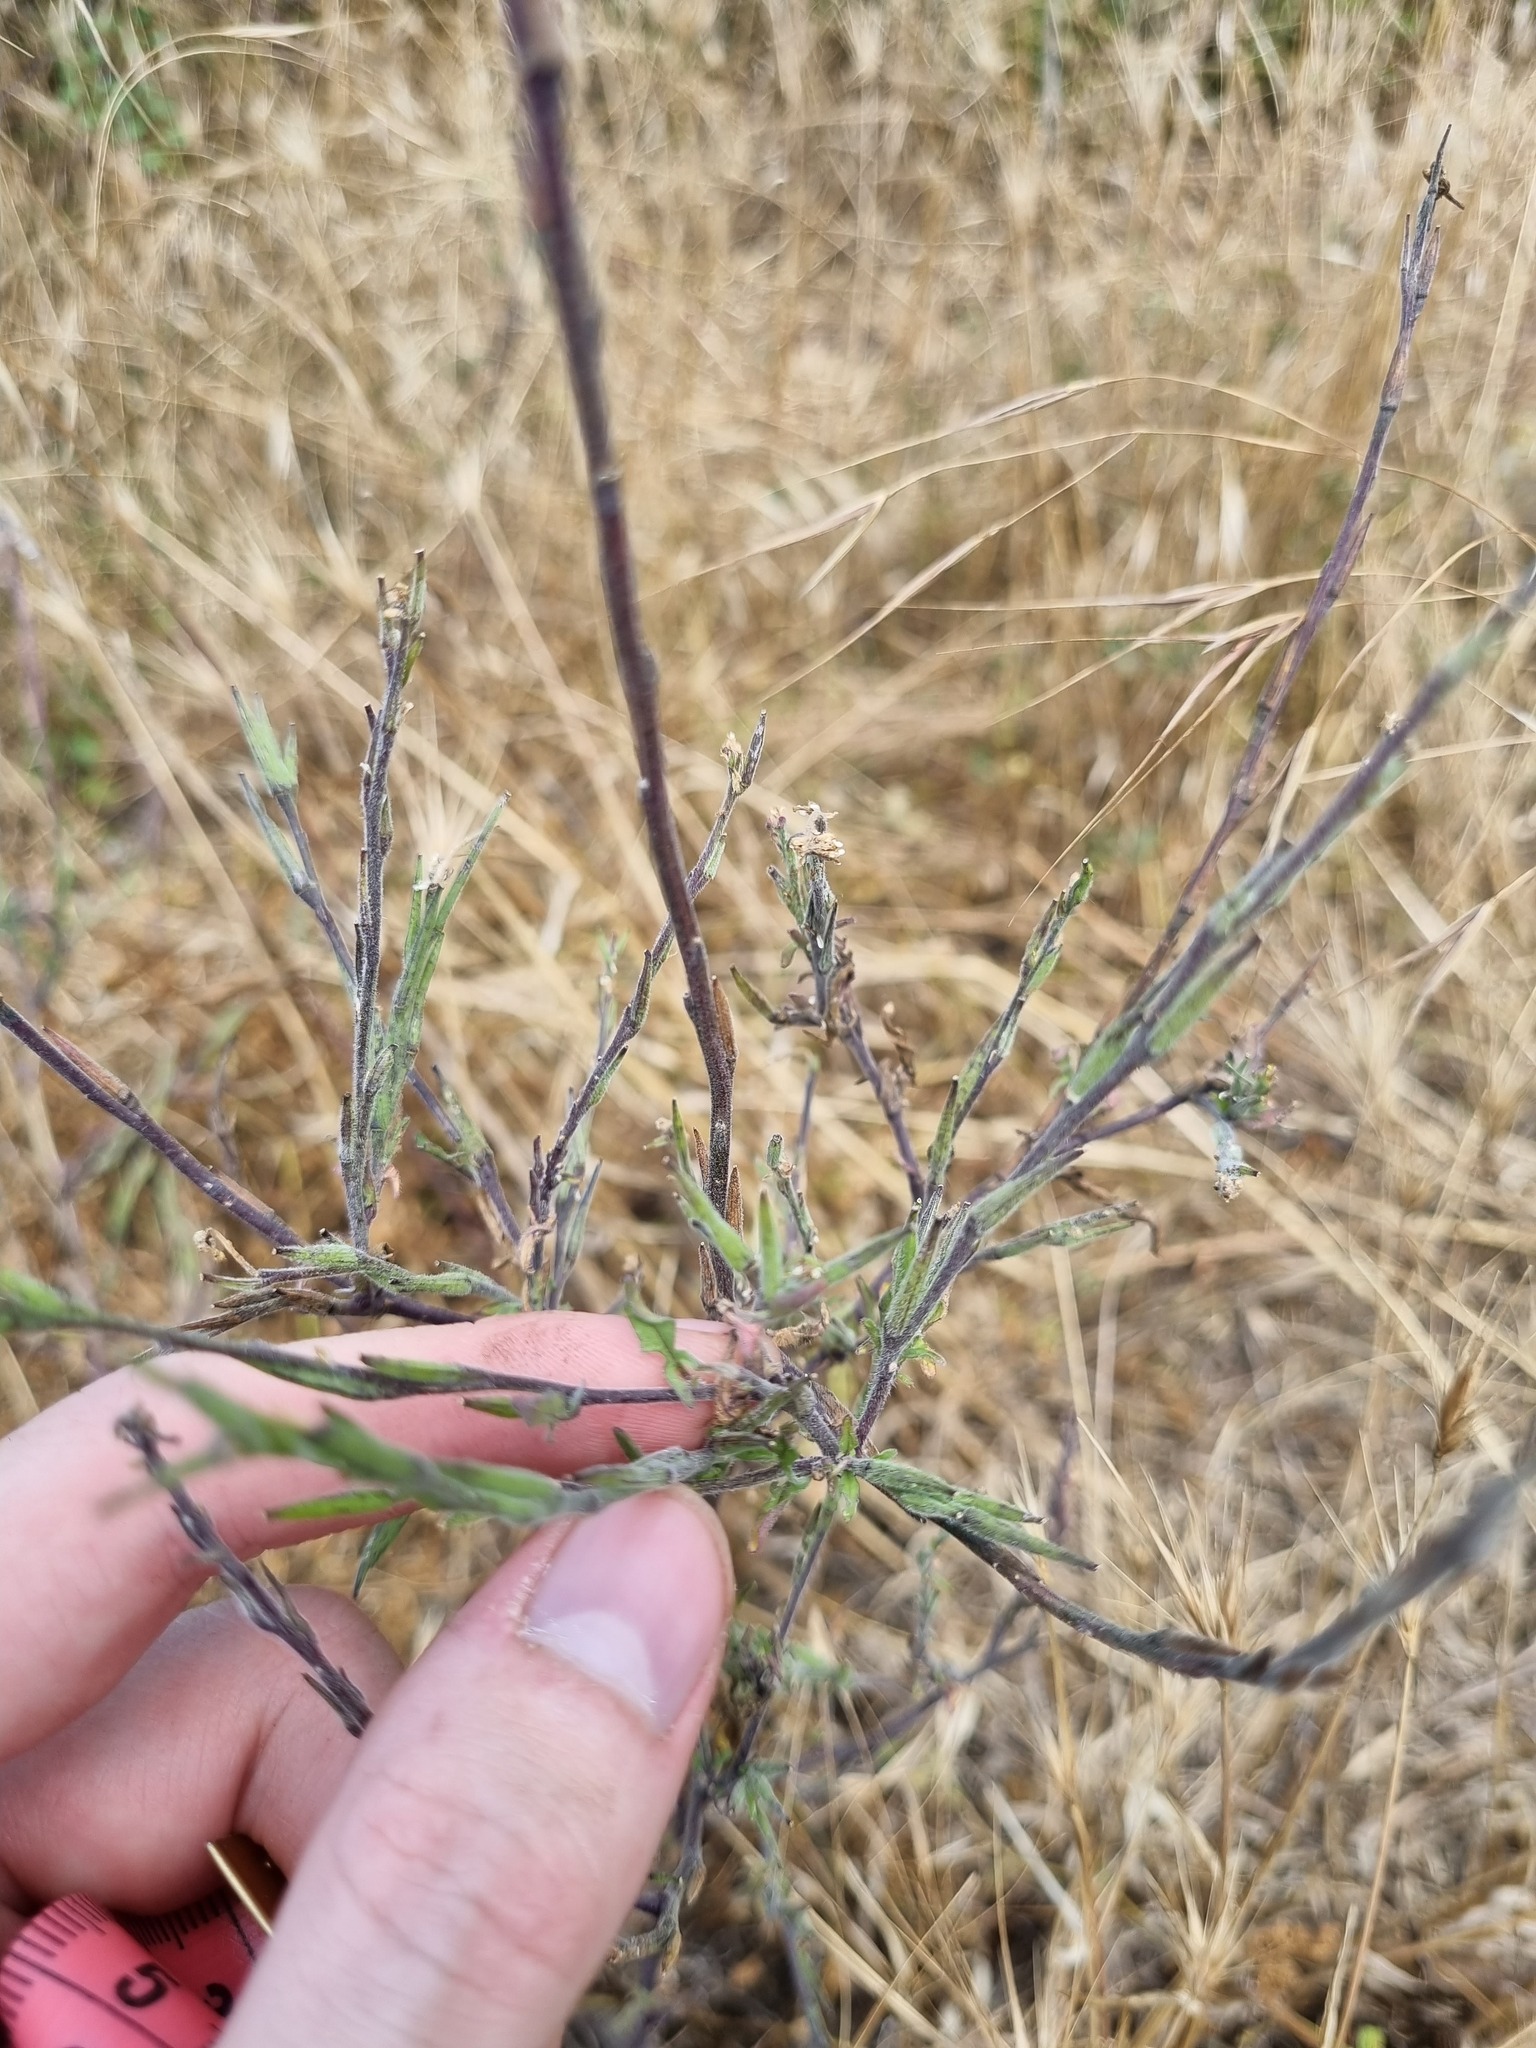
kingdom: Plantae
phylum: Tracheophyta
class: Magnoliopsida
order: Brassicales
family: Brassicaceae
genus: Sisymbrium
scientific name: Sisymbrium officinale
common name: Hedge mustard
